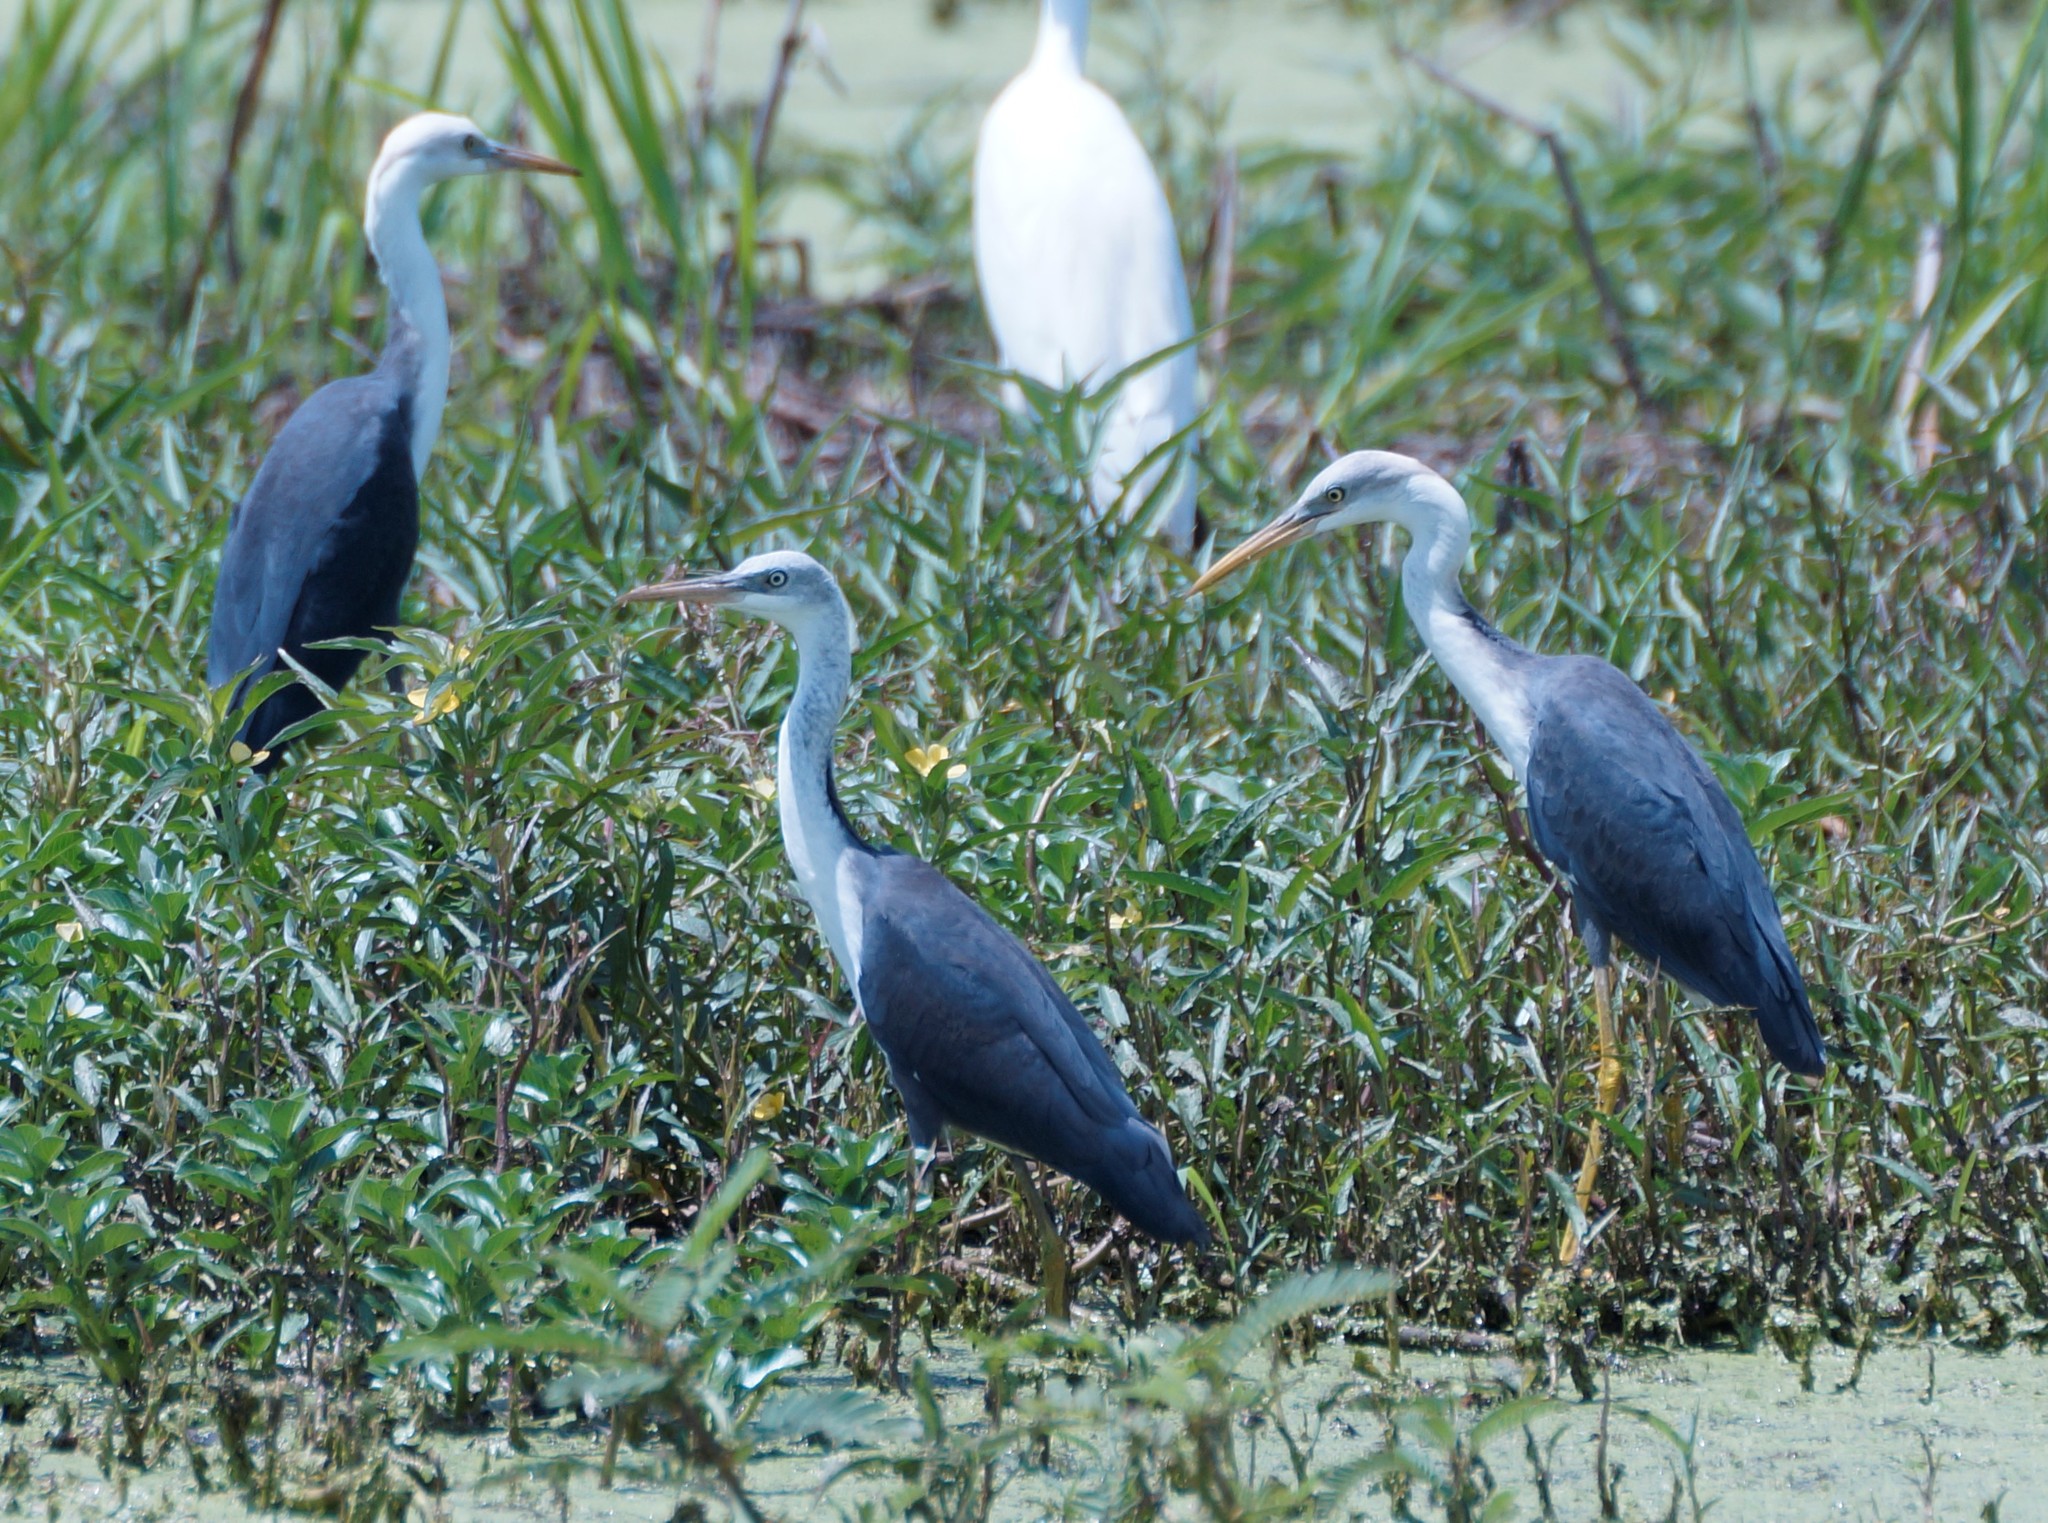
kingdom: Animalia
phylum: Chordata
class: Aves
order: Pelecaniformes
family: Ardeidae
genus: Egretta
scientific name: Egretta picata
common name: Pied heron
